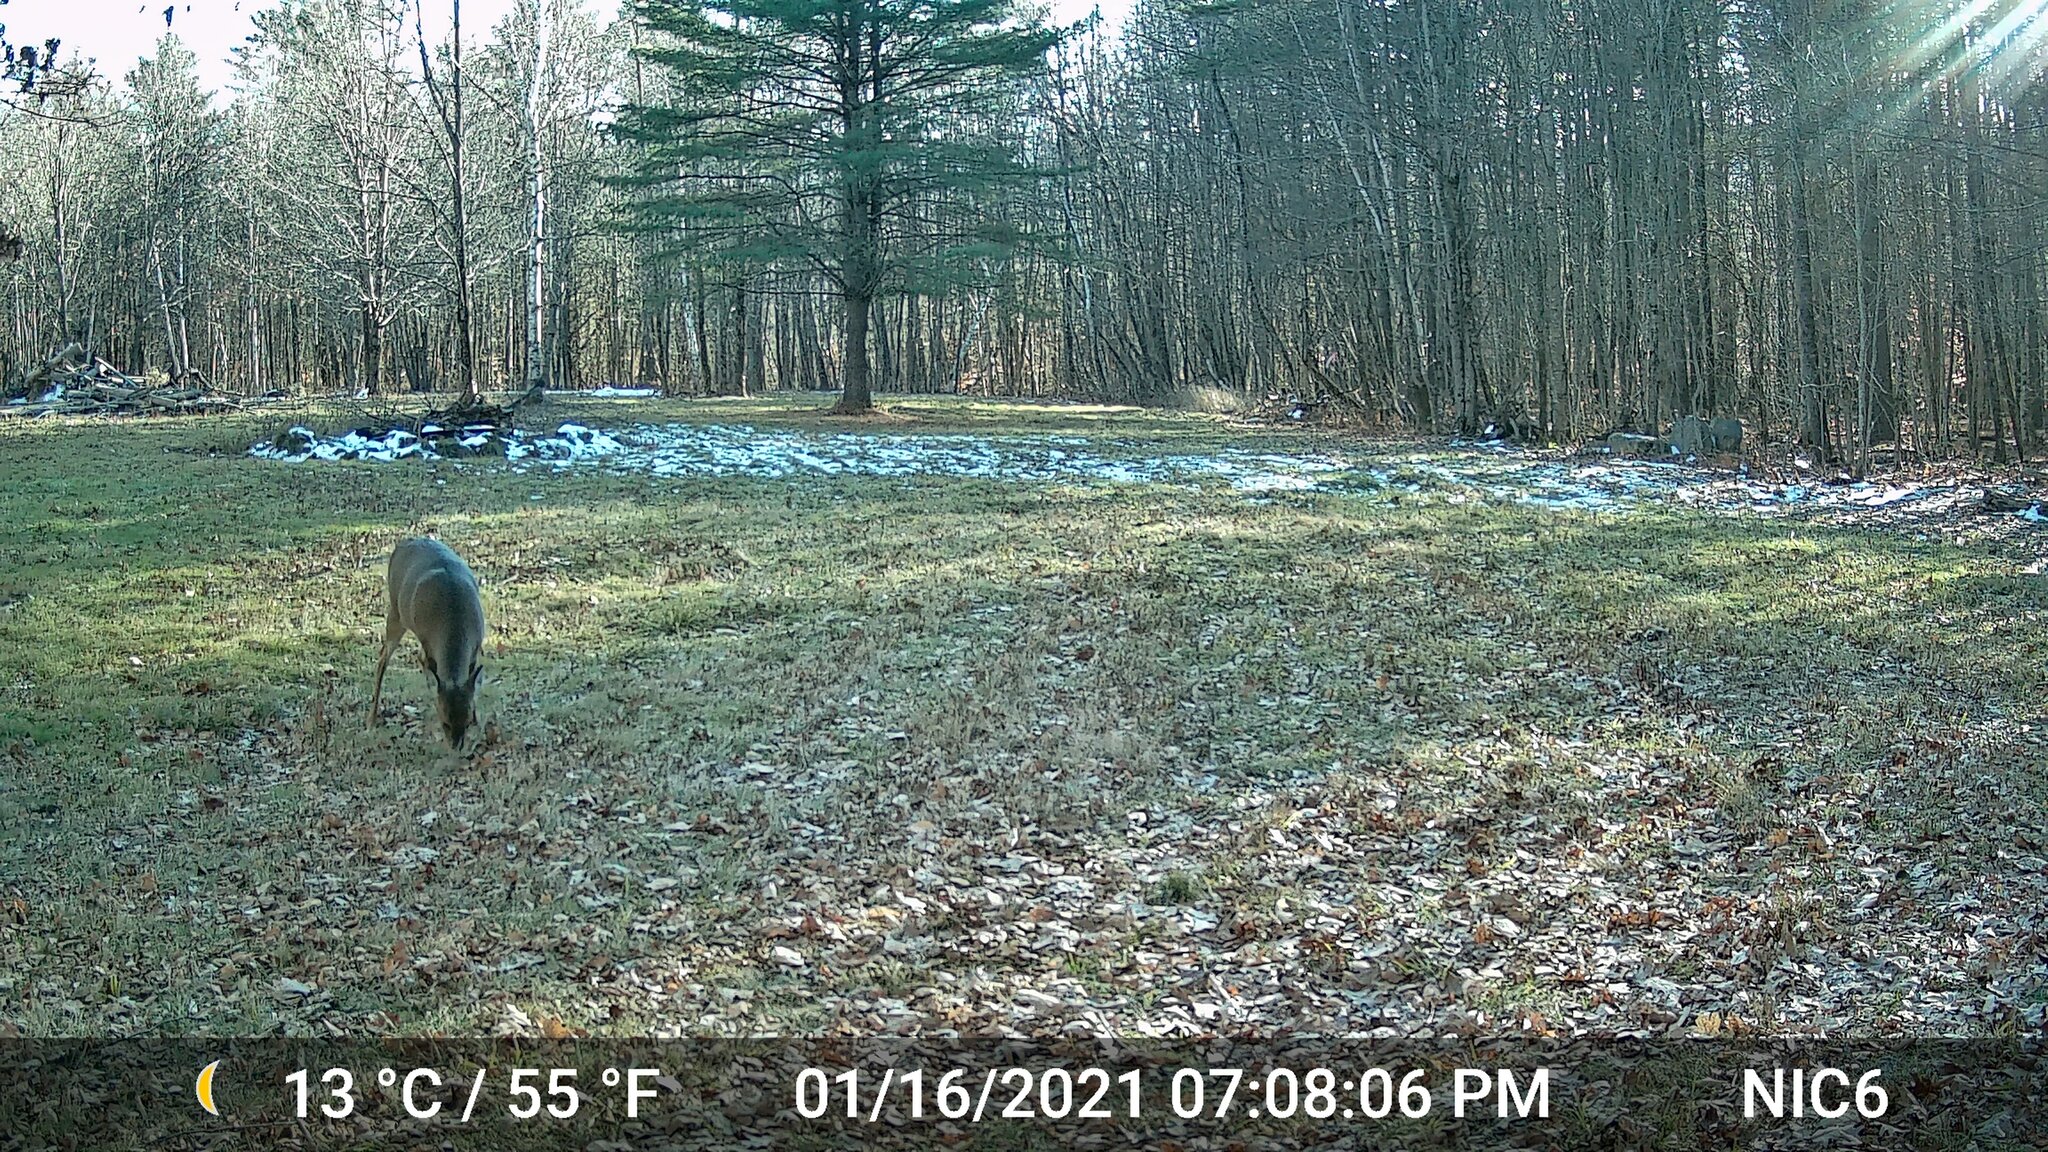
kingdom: Animalia
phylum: Chordata
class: Mammalia
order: Artiodactyla
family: Cervidae
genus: Odocoileus
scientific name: Odocoileus virginianus
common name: White-tailed deer
